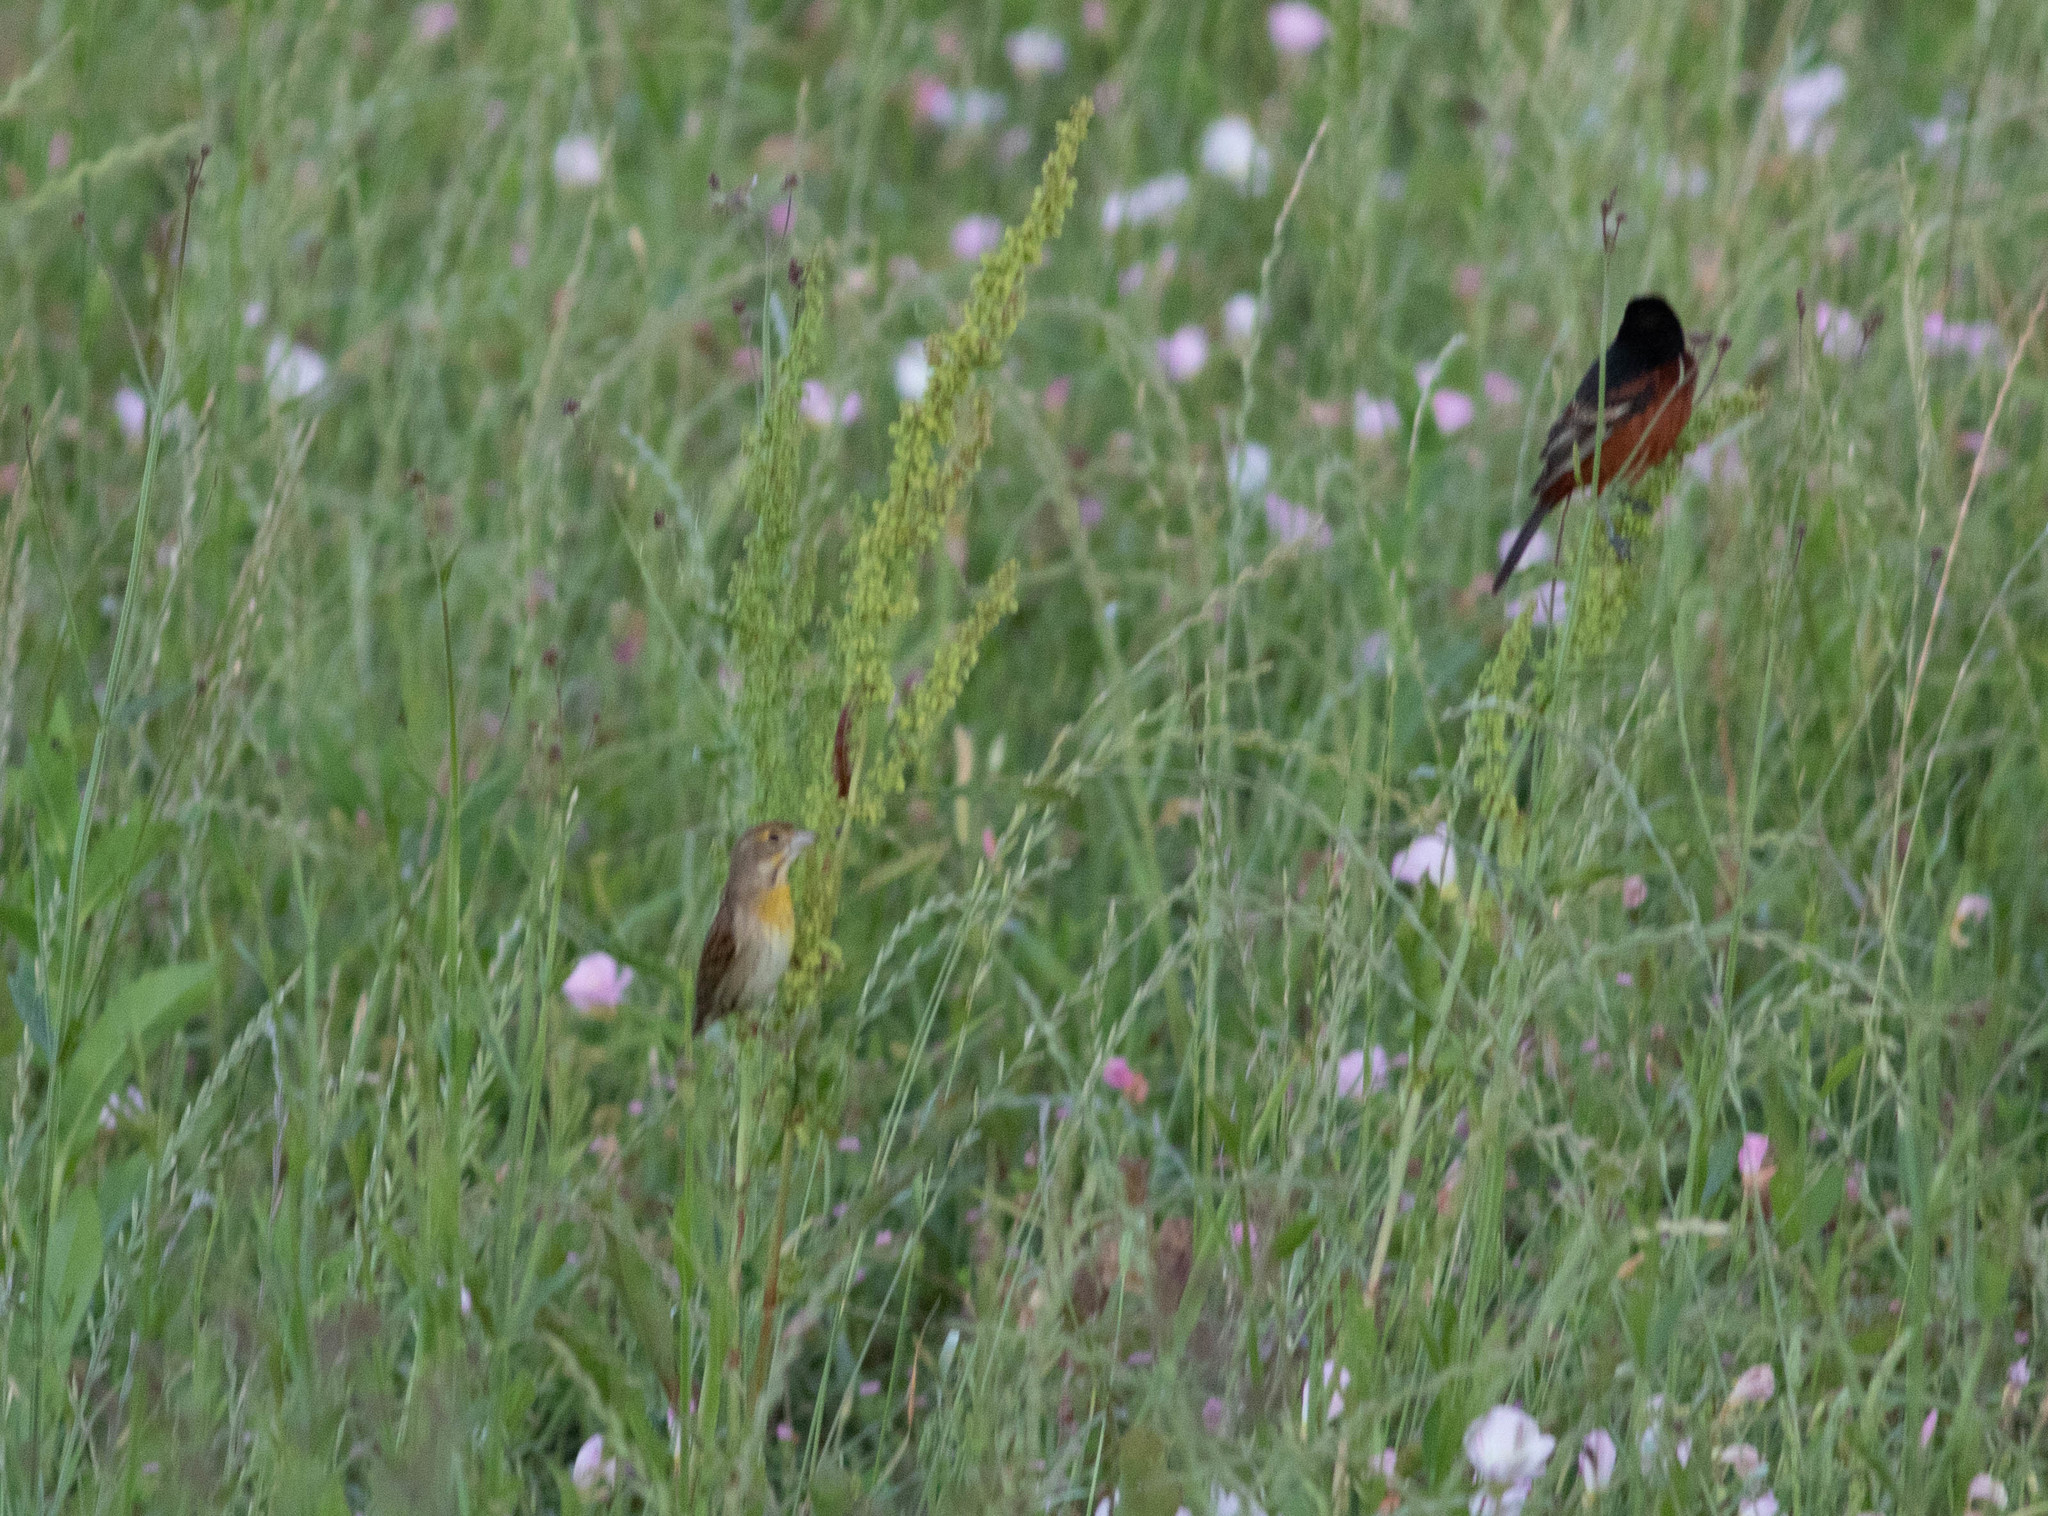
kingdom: Animalia
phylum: Chordata
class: Aves
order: Passeriformes
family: Cardinalidae
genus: Spiza
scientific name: Spiza americana
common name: Dickcissel
